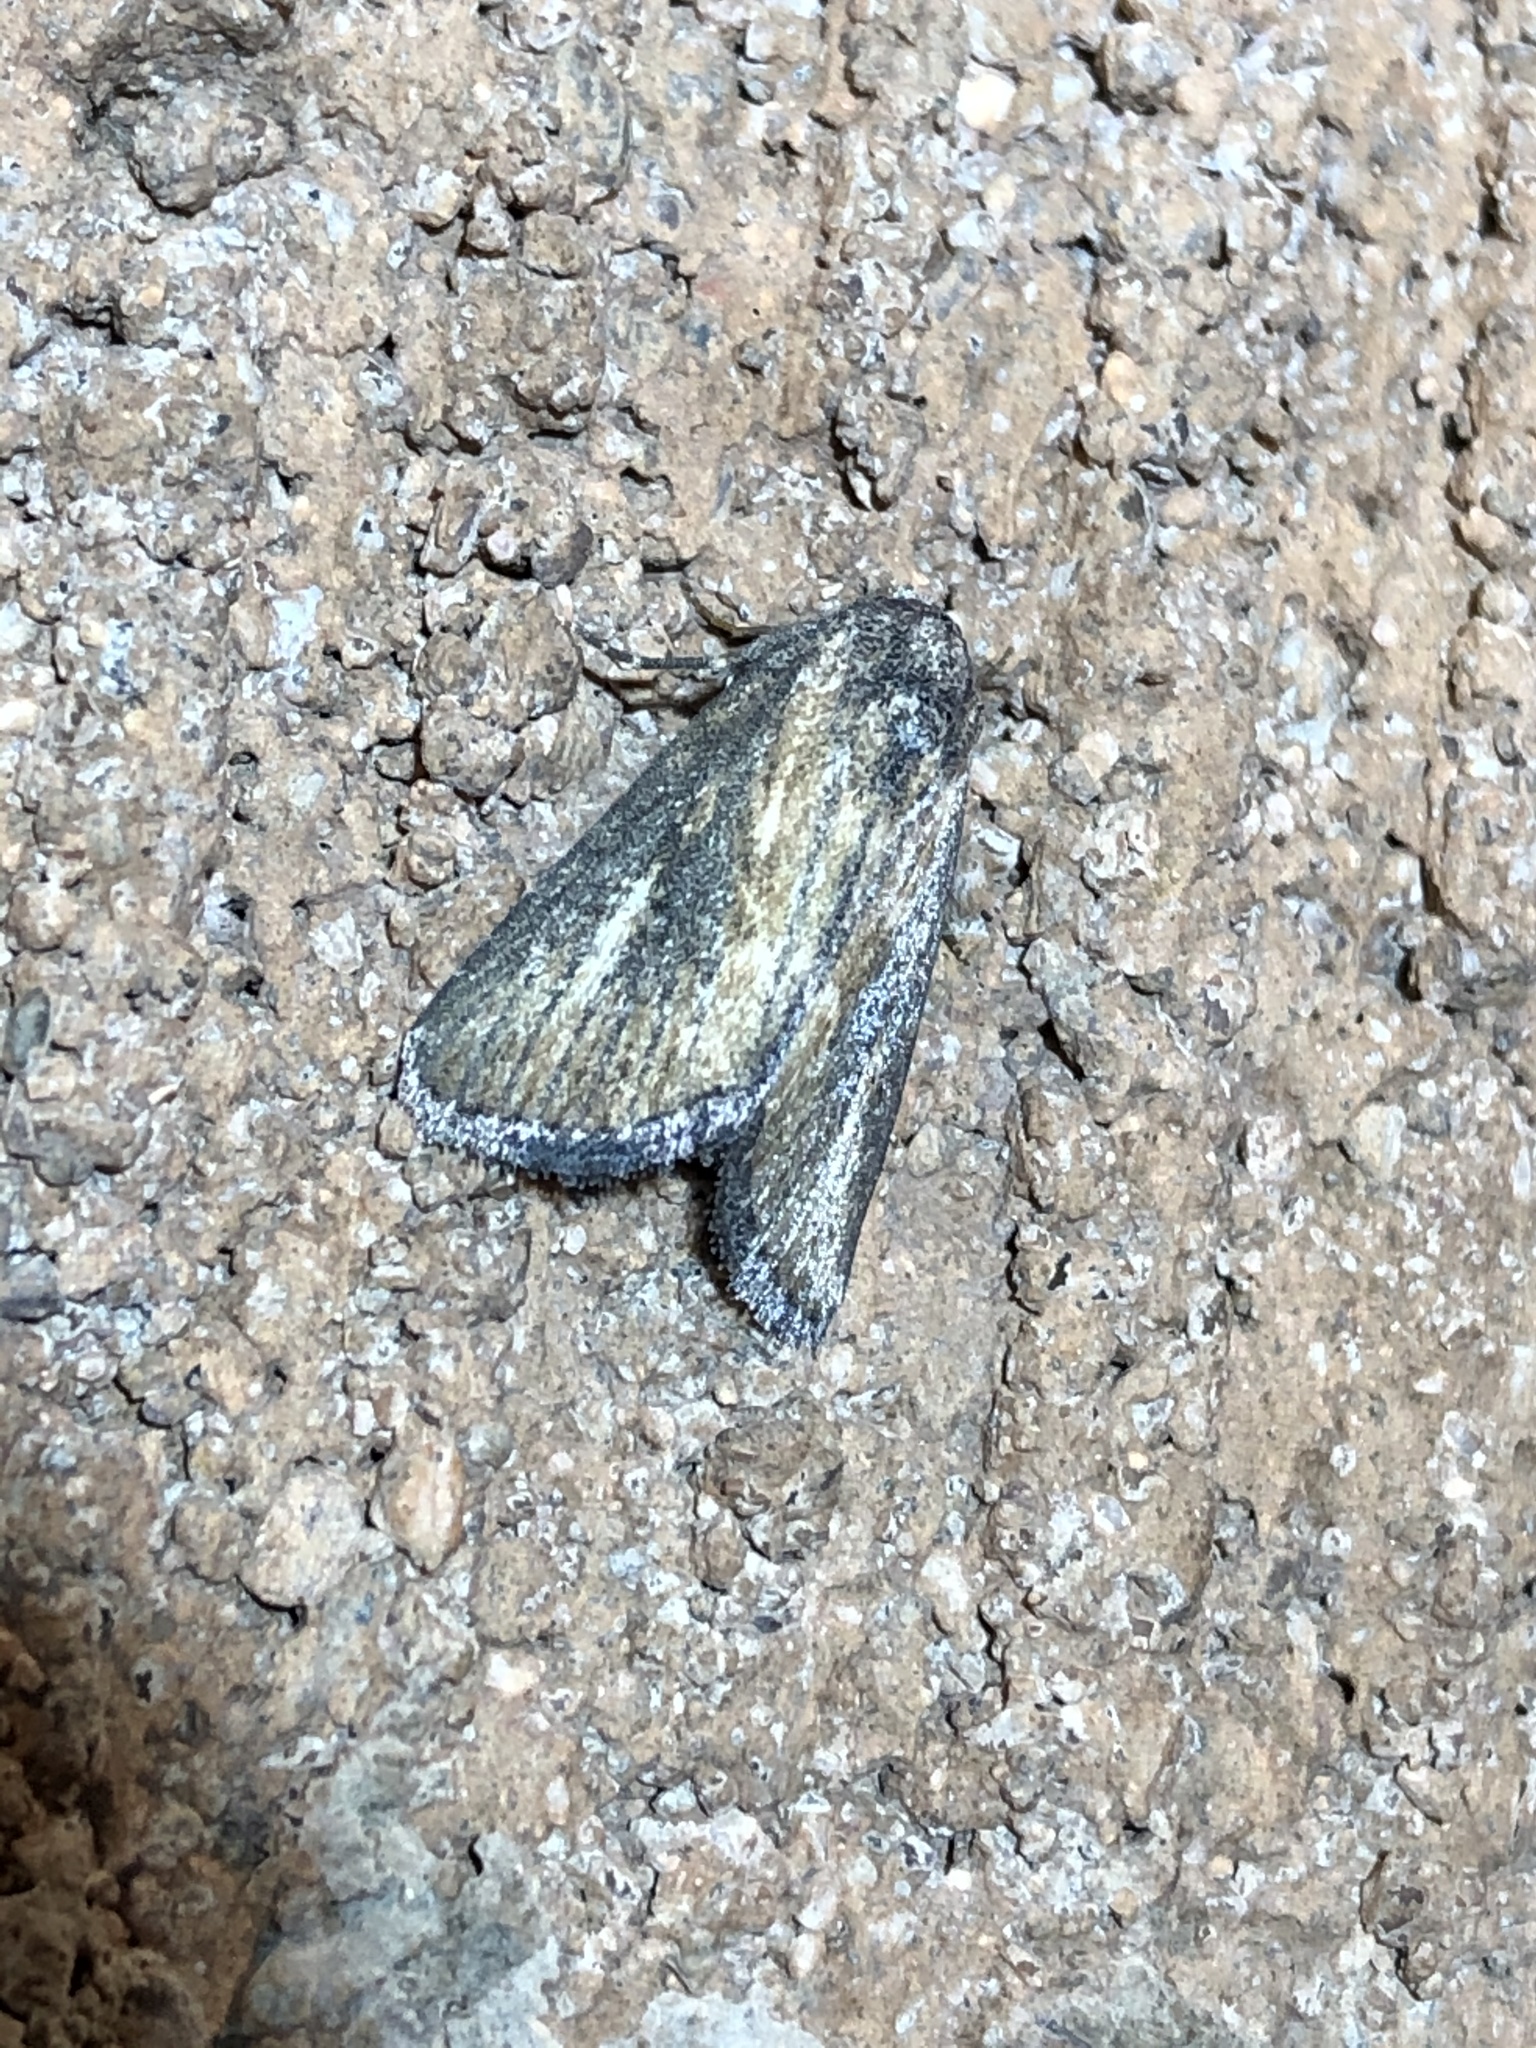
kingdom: Animalia
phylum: Arthropoda
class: Insecta
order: Lepidoptera
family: Noctuidae
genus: Condica
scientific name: Condica temecula
